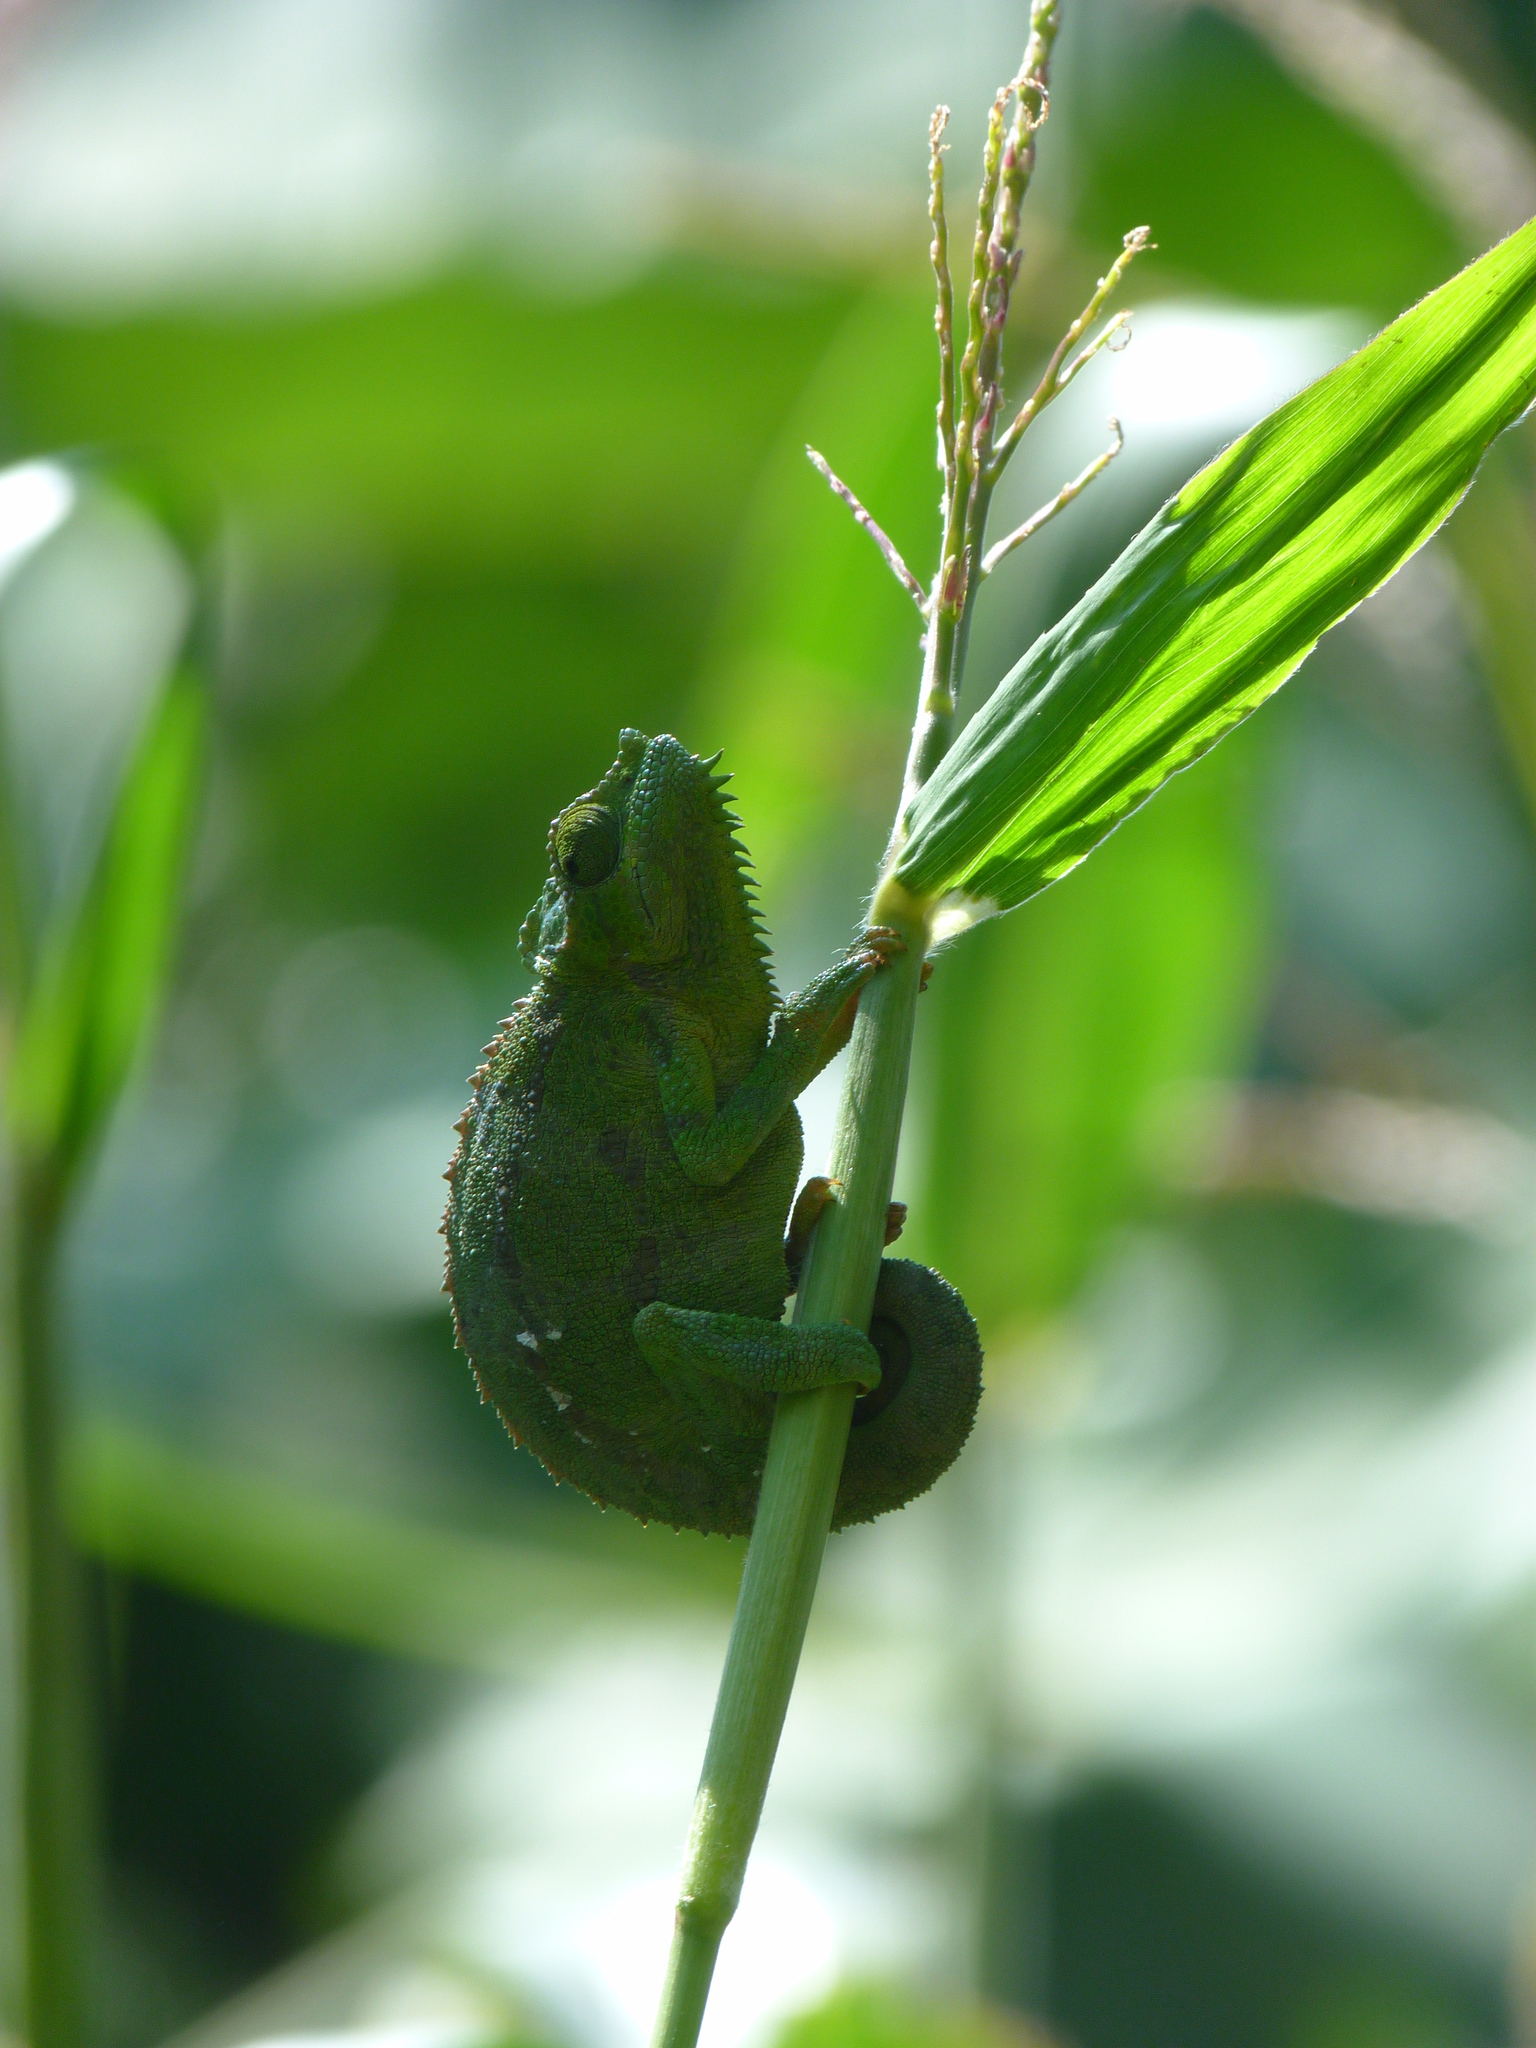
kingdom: Animalia
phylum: Chordata
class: Squamata
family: Chamaeleonidae
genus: Trioceros
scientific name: Trioceros hoehnelii
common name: High-casqued chameleon
